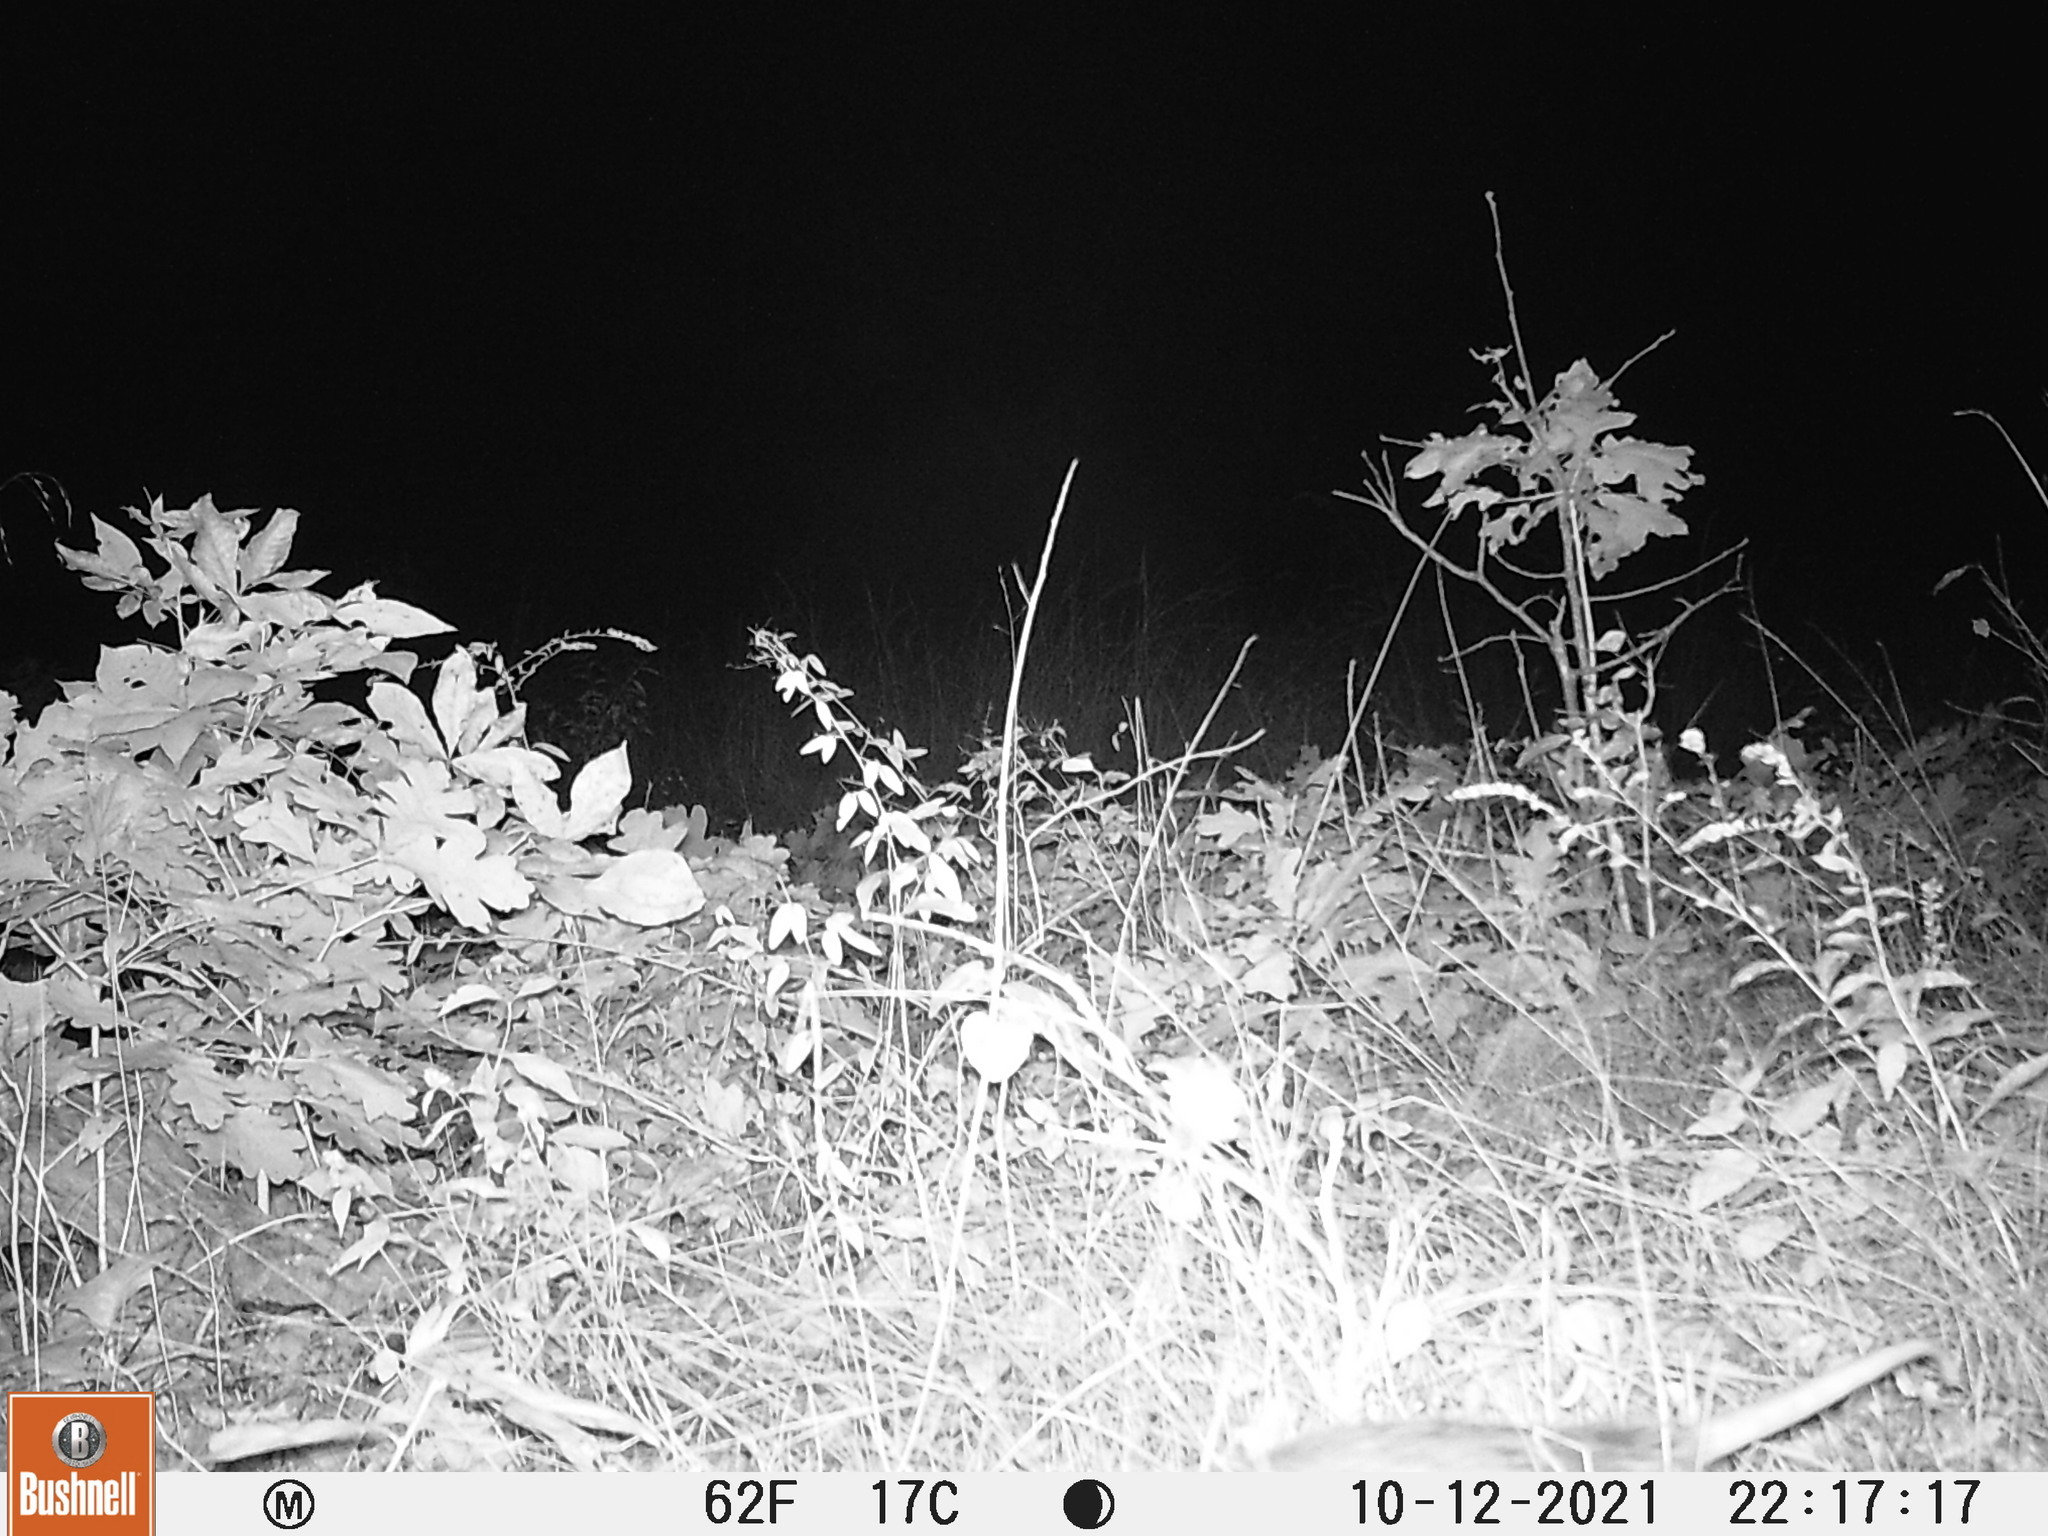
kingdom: Animalia
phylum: Chordata
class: Mammalia
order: Didelphimorphia
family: Didelphidae
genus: Didelphis
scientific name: Didelphis virginiana
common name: Virginia opossum
